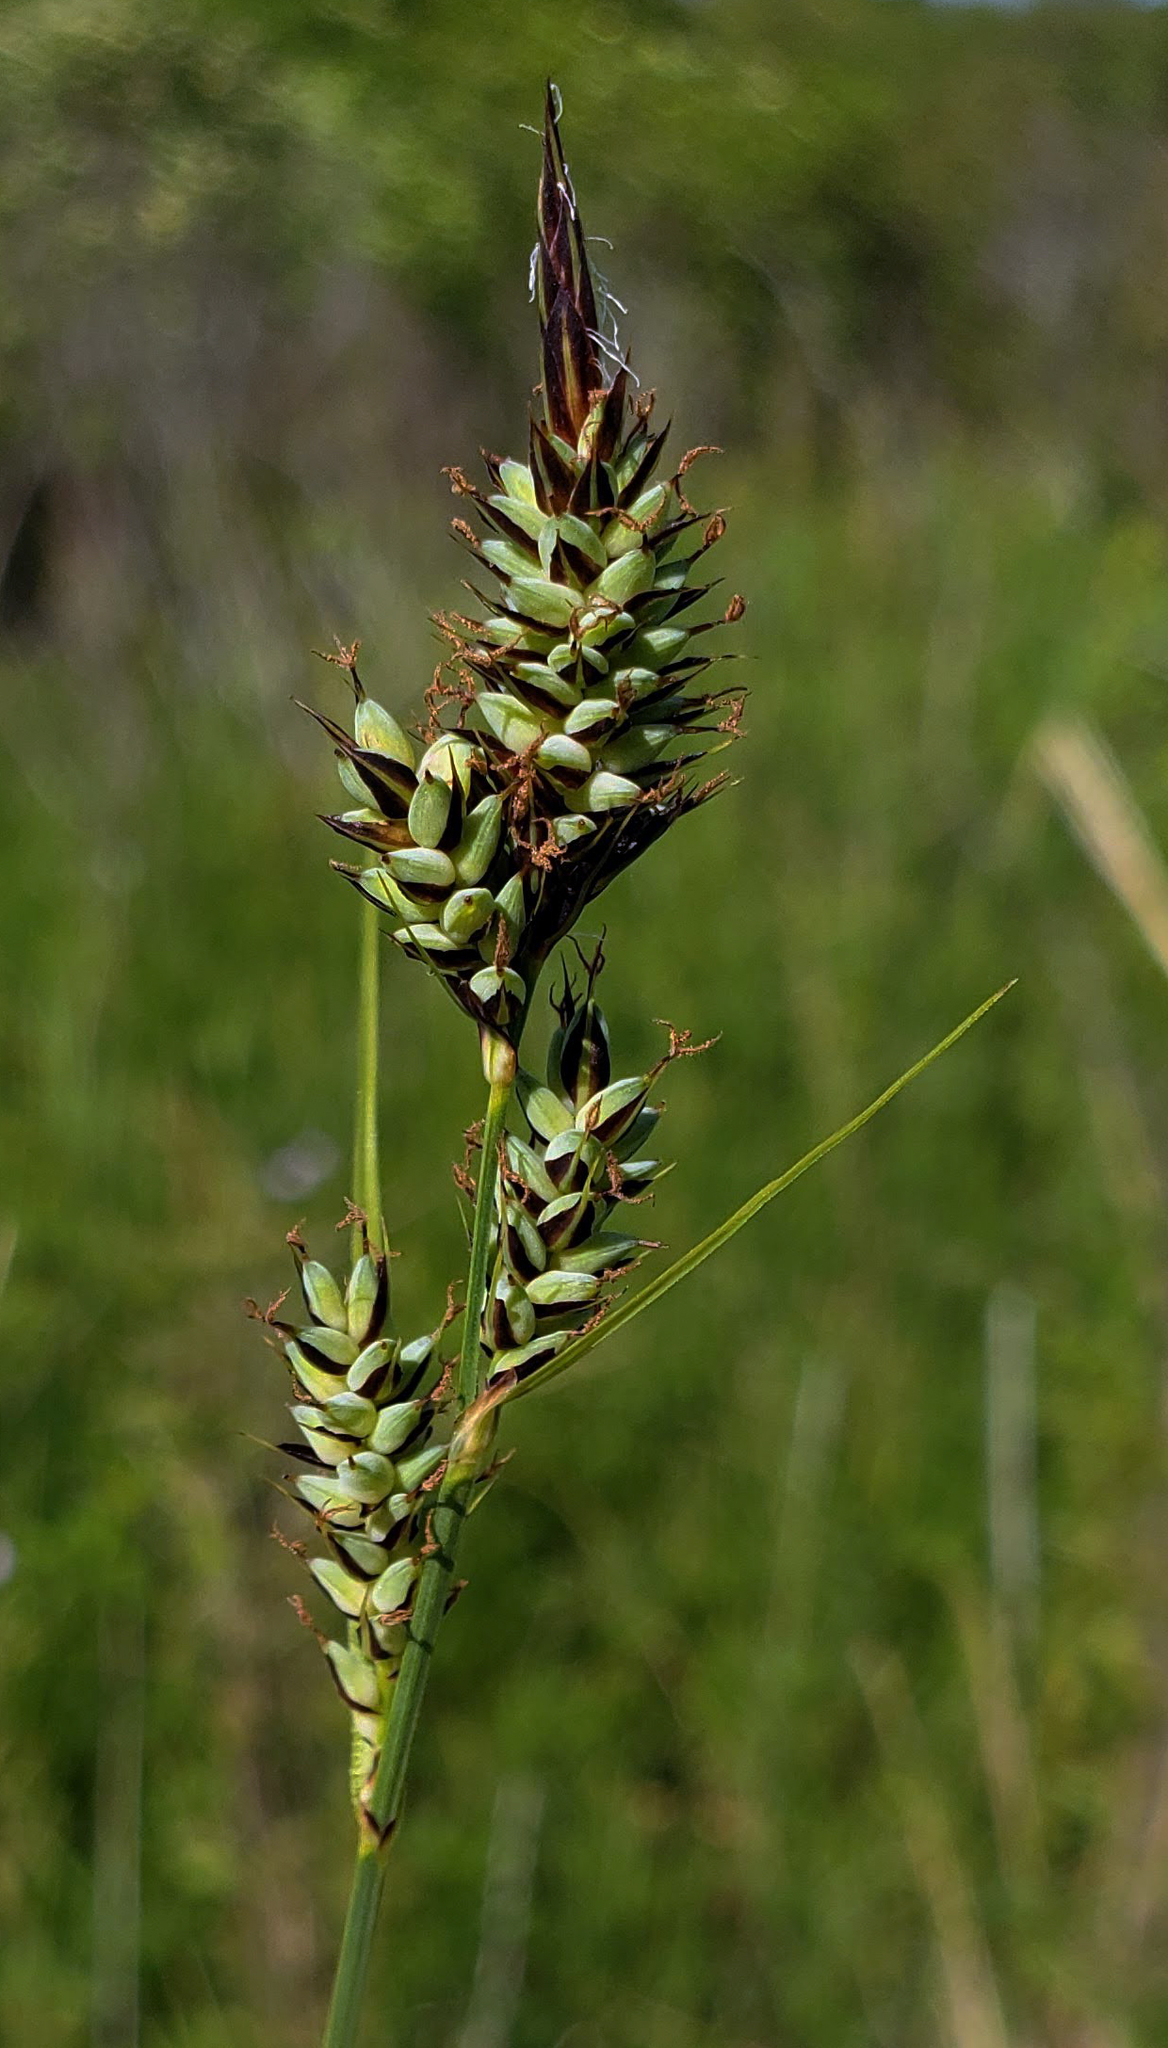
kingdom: Plantae
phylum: Tracheophyta
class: Liliopsida
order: Poales
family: Cyperaceae
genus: Carex
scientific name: Carex buxbaumii
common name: Club sedge
